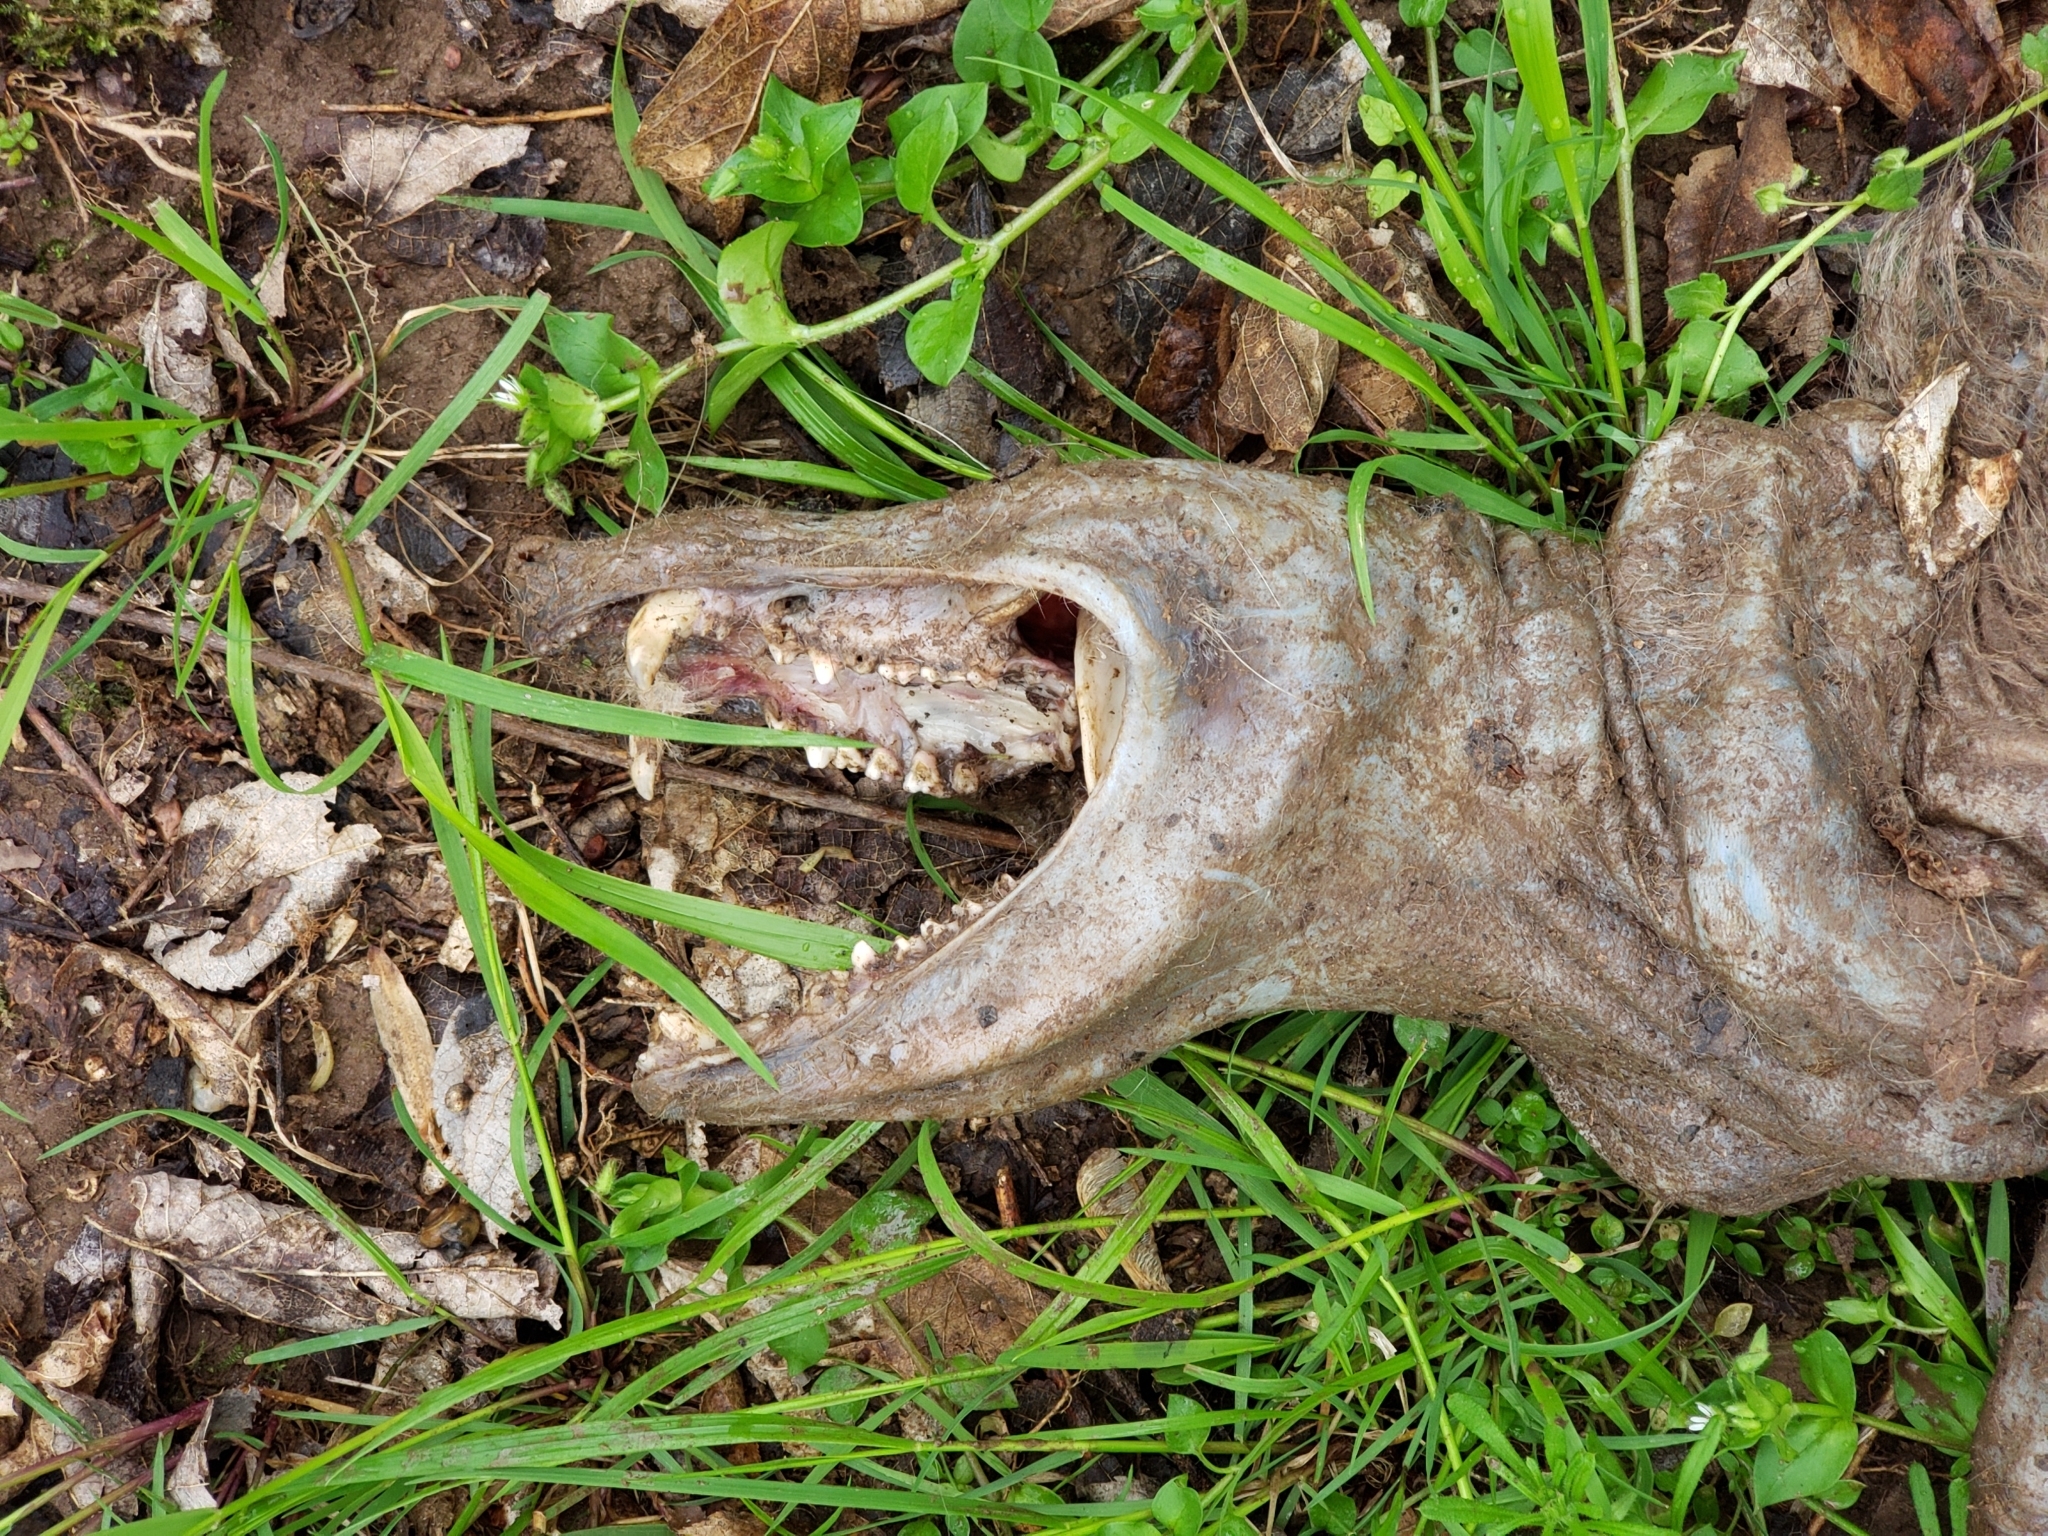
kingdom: Animalia
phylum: Chordata
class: Mammalia
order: Didelphimorphia
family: Didelphidae
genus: Didelphis
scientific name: Didelphis virginiana
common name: Virginia opossum
